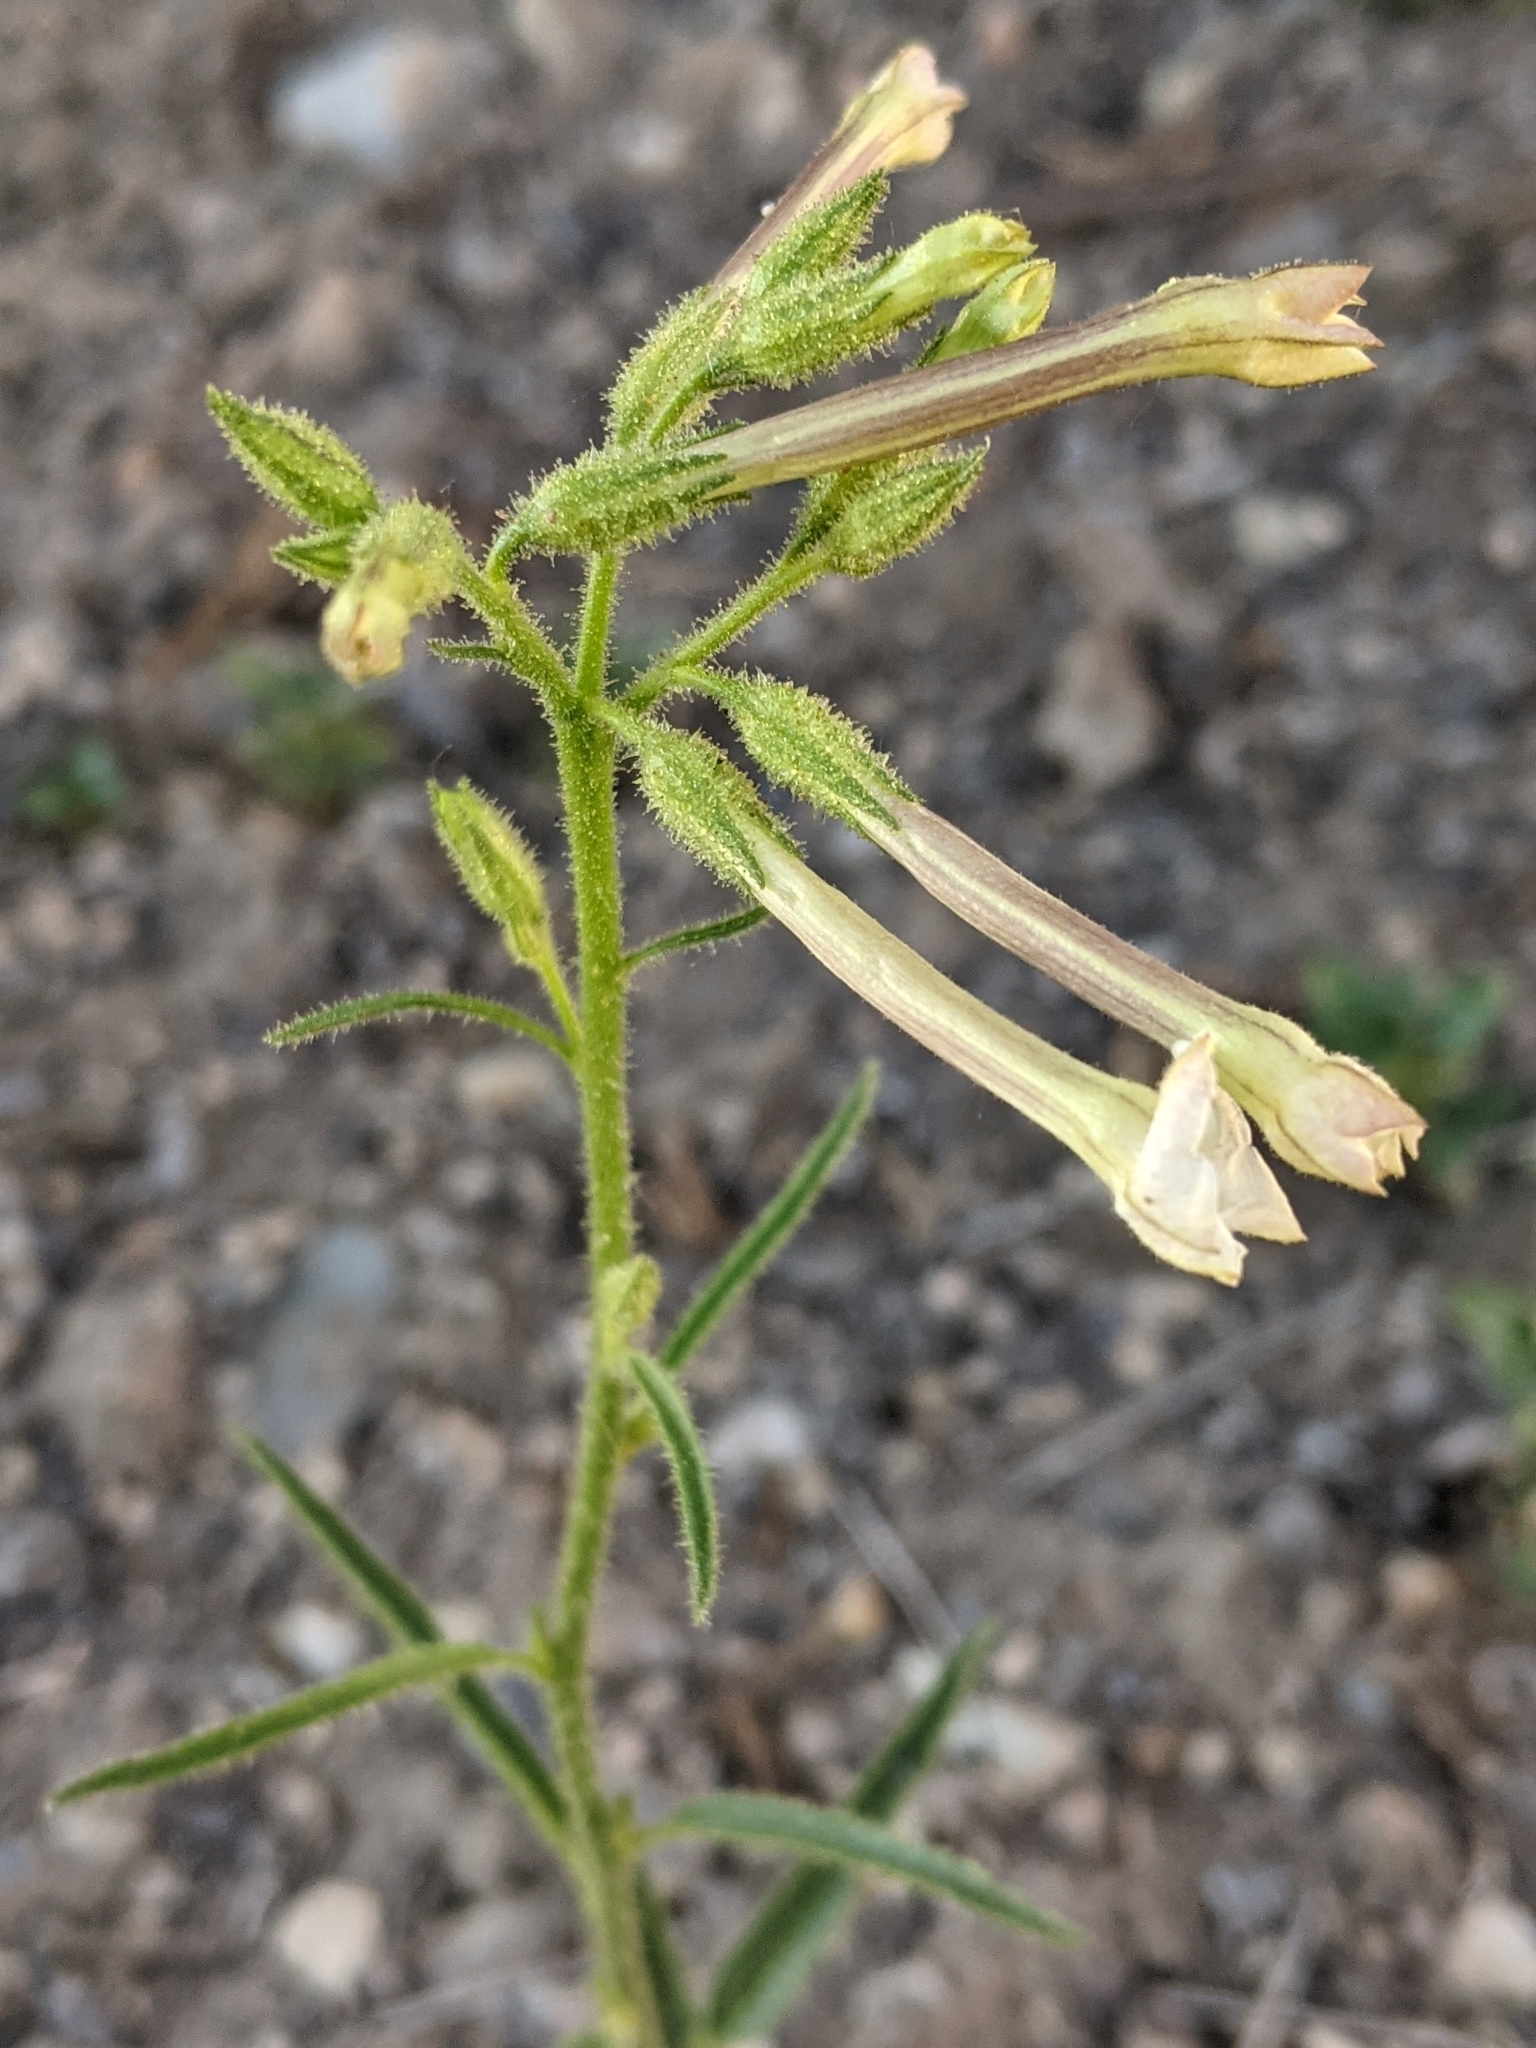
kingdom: Plantae
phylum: Tracheophyta
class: Magnoliopsida
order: Solanales
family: Solanaceae
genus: Nicotiana
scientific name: Nicotiana attenuata
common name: Coyote tobacco
